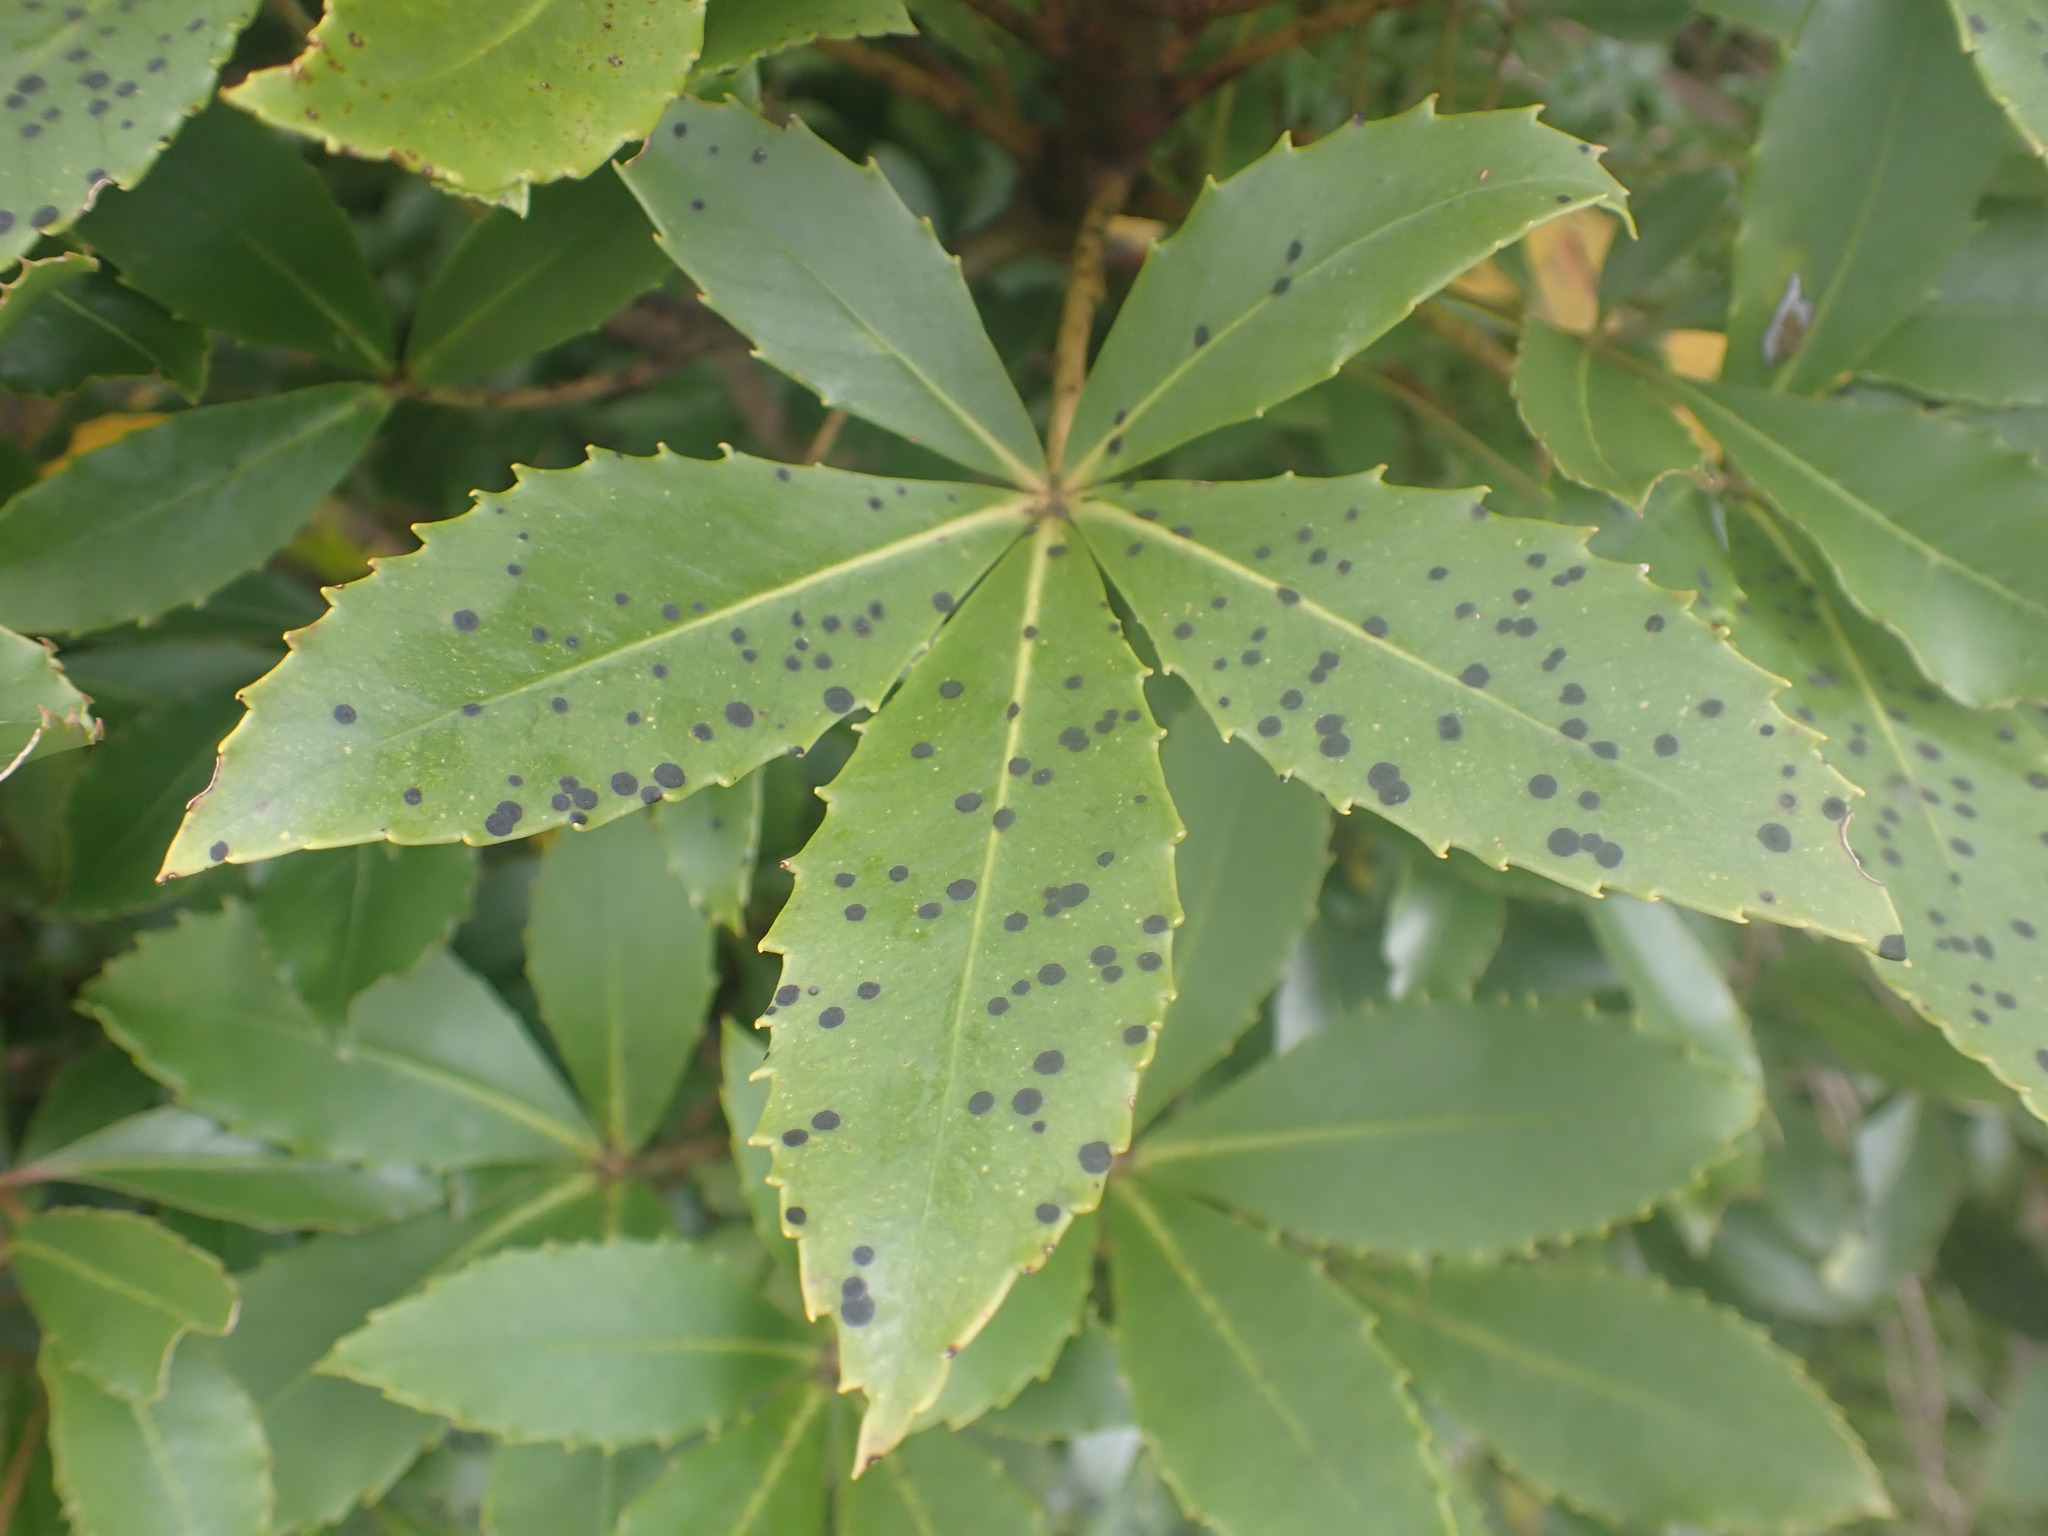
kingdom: Fungi
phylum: Ascomycota
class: Dothideomycetes
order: Asterinales
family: Asterinaceae
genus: Placosoma
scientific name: Placosoma nothopanacis
